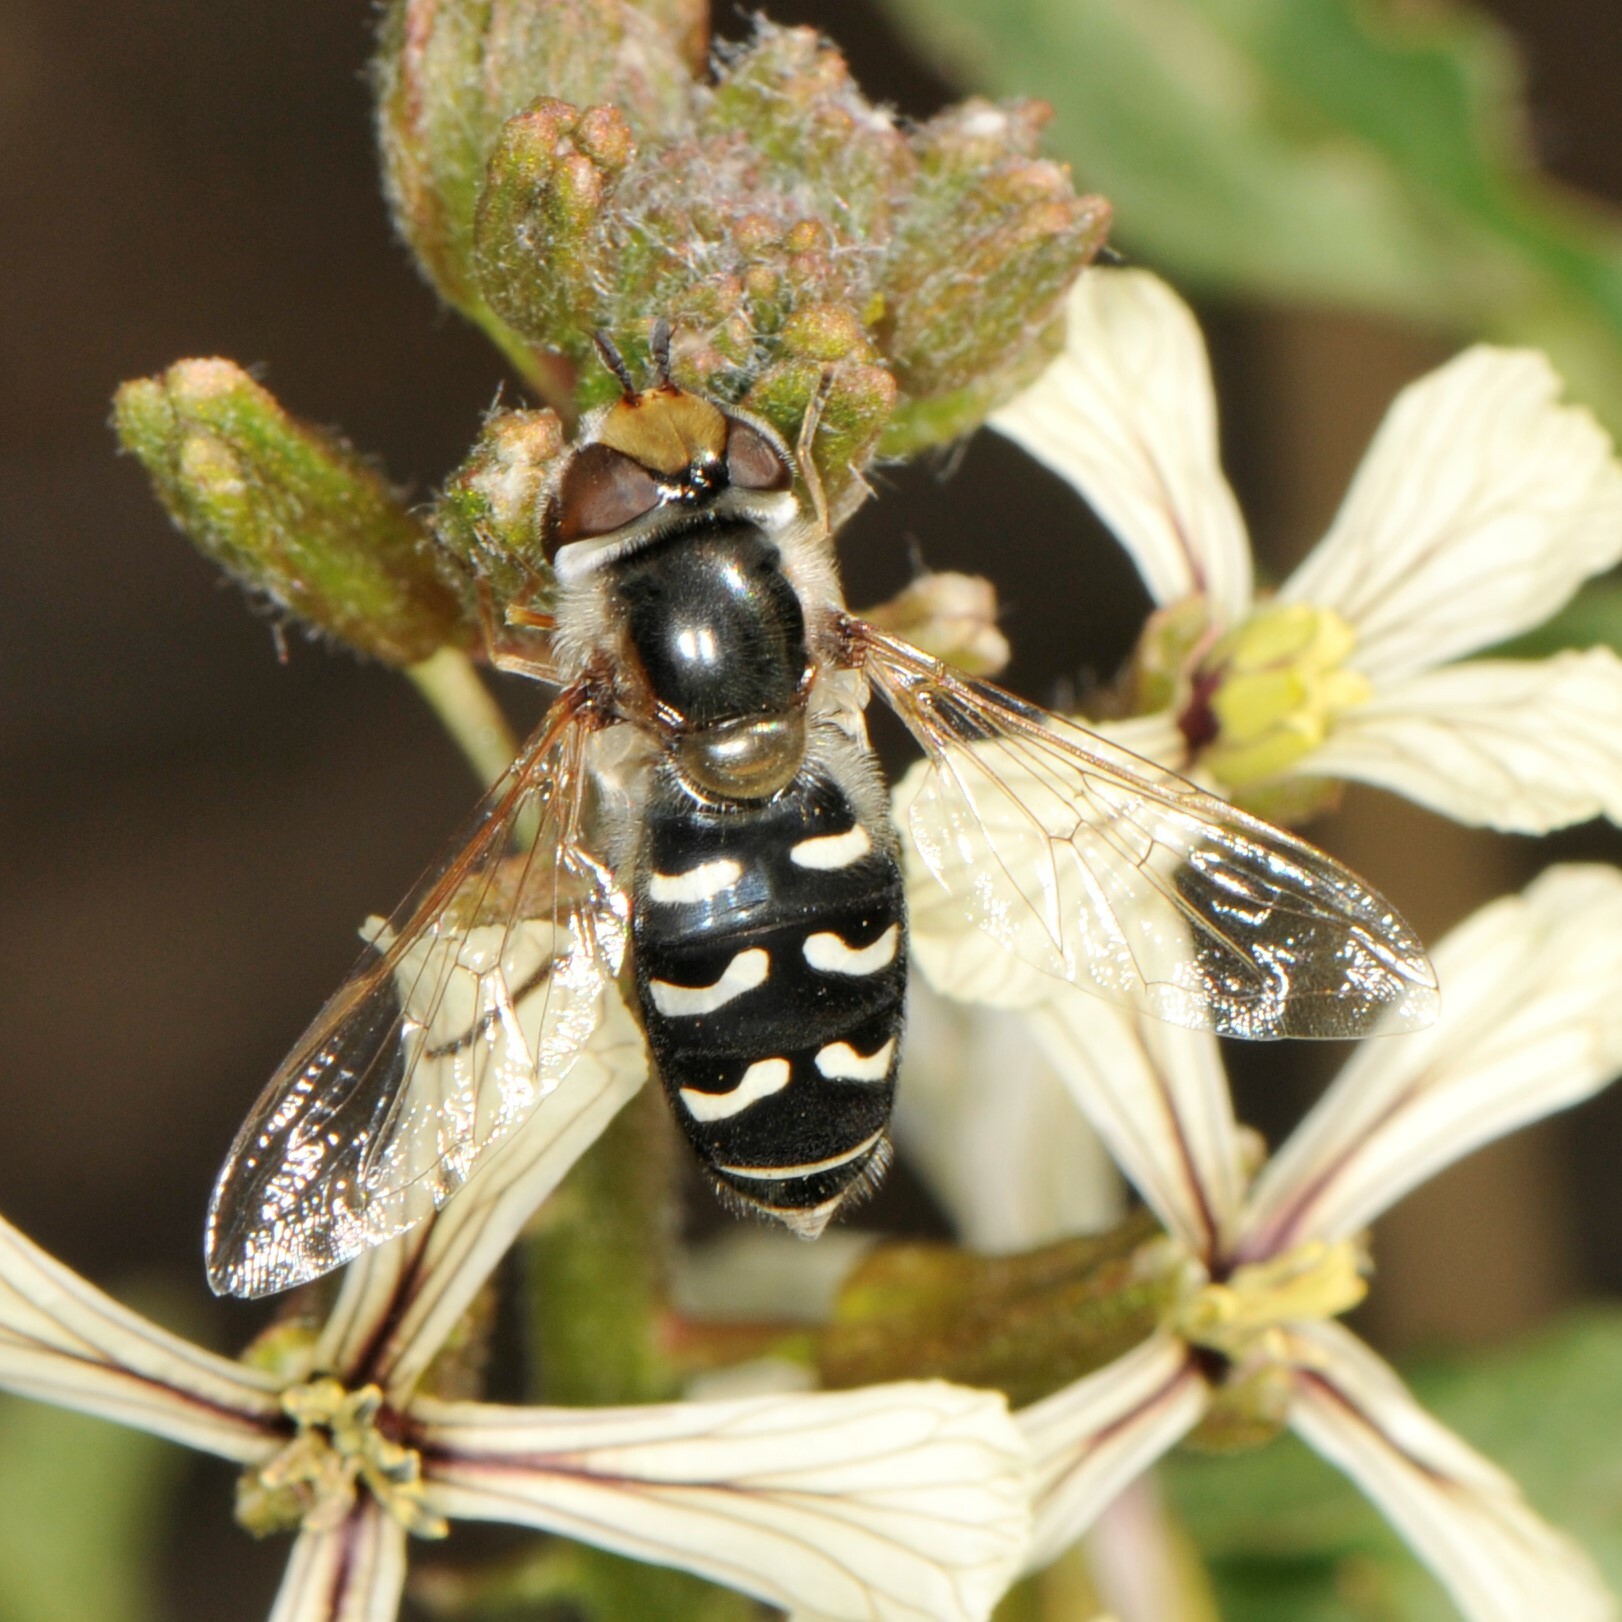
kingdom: Animalia
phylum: Arthropoda
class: Insecta
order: Diptera
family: Syrphidae
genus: Scaeva
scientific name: Scaeva affinis
